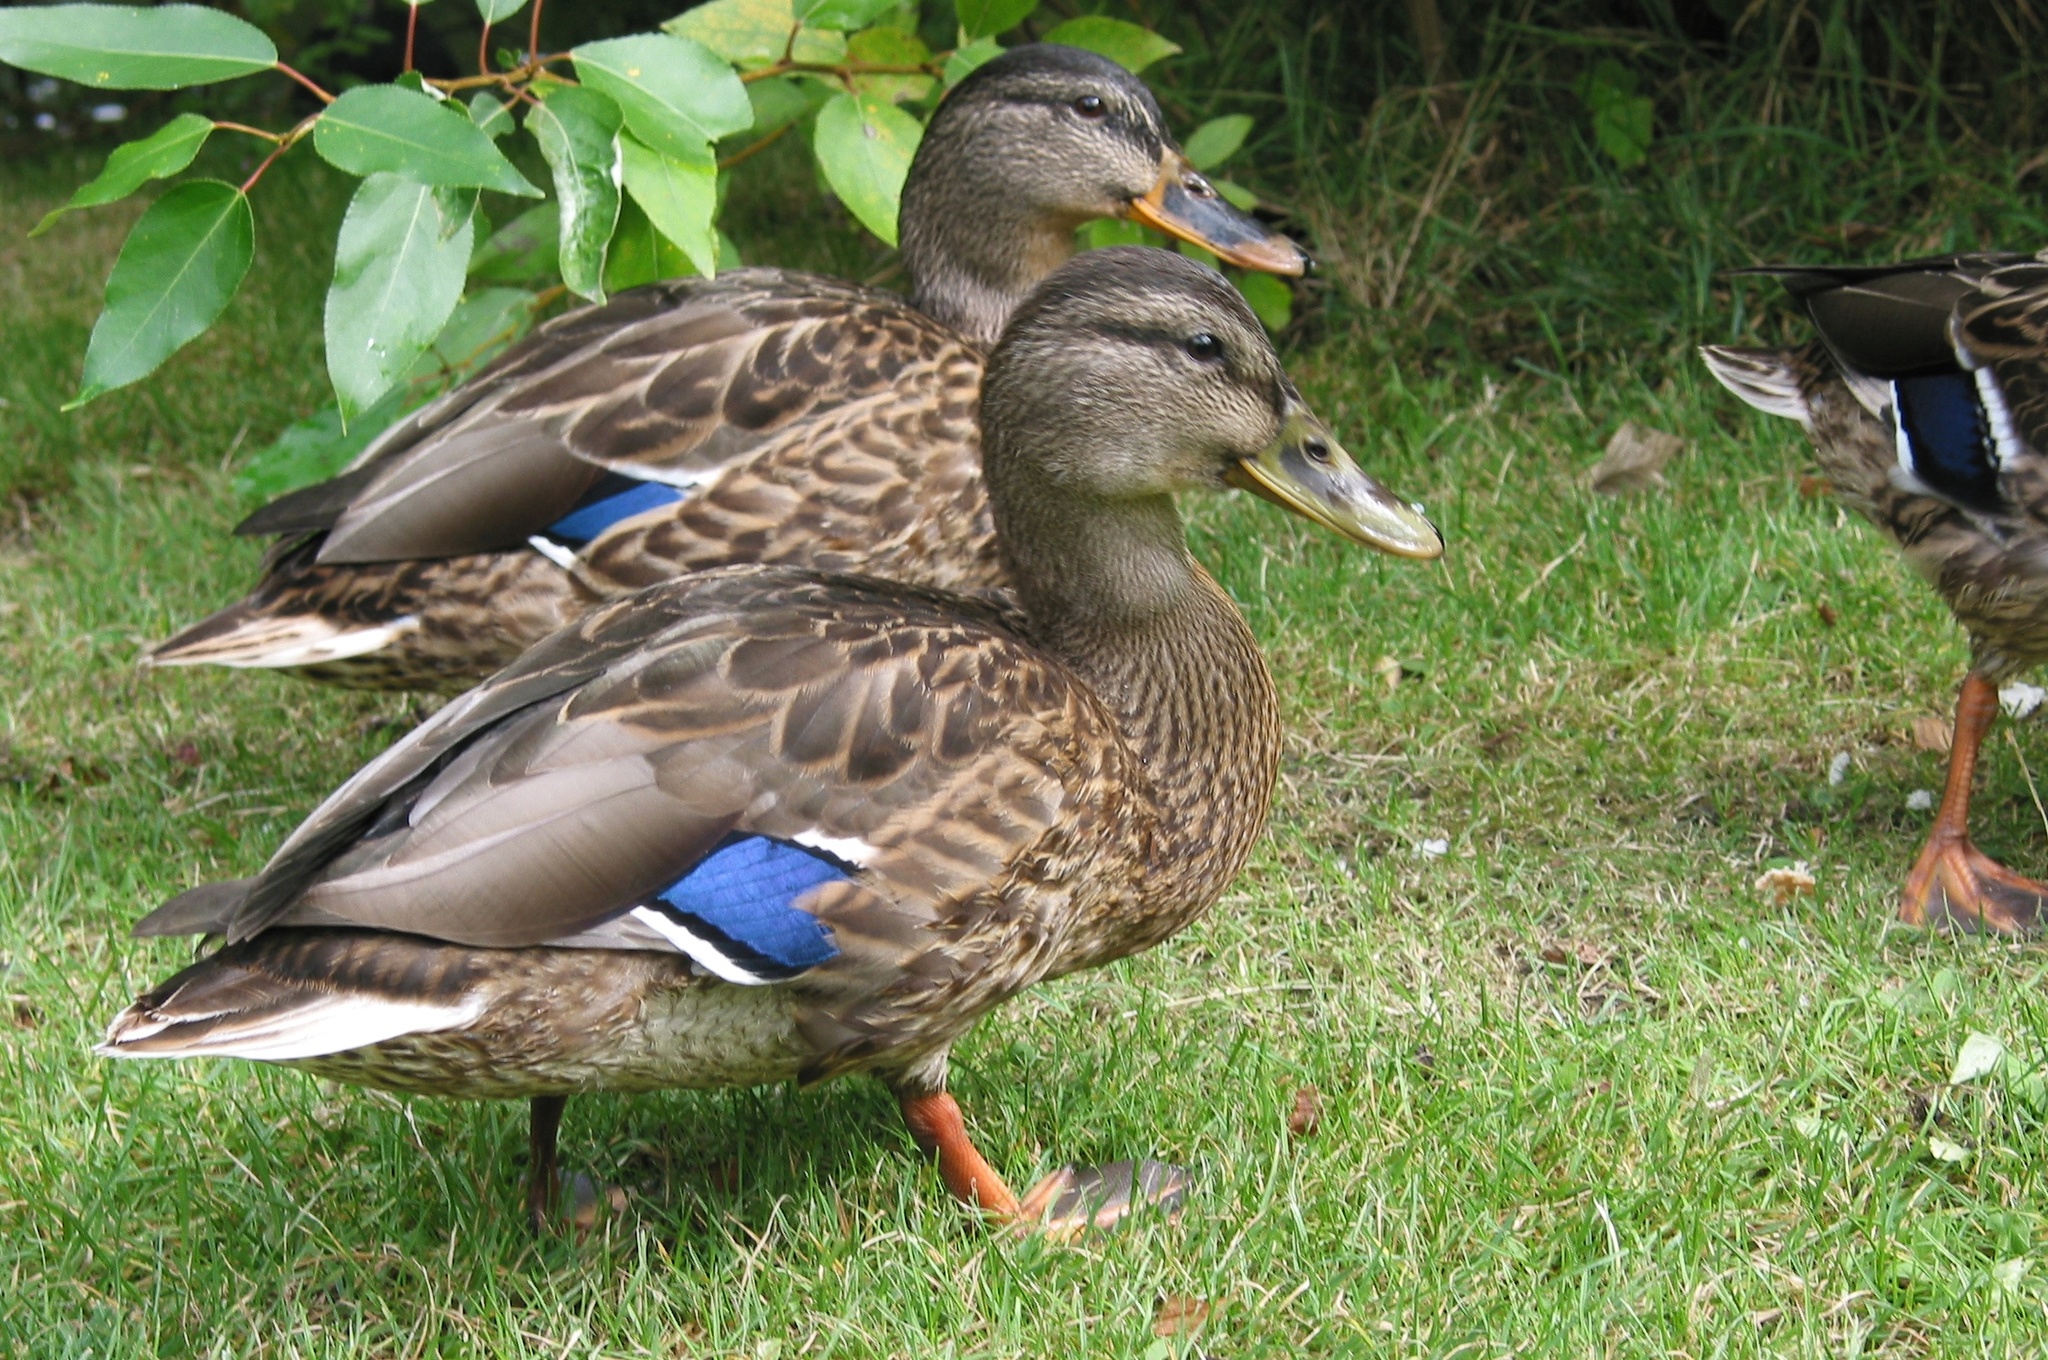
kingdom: Animalia
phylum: Chordata
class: Aves
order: Anseriformes
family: Anatidae
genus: Anas
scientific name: Anas platyrhynchos
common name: Mallard
